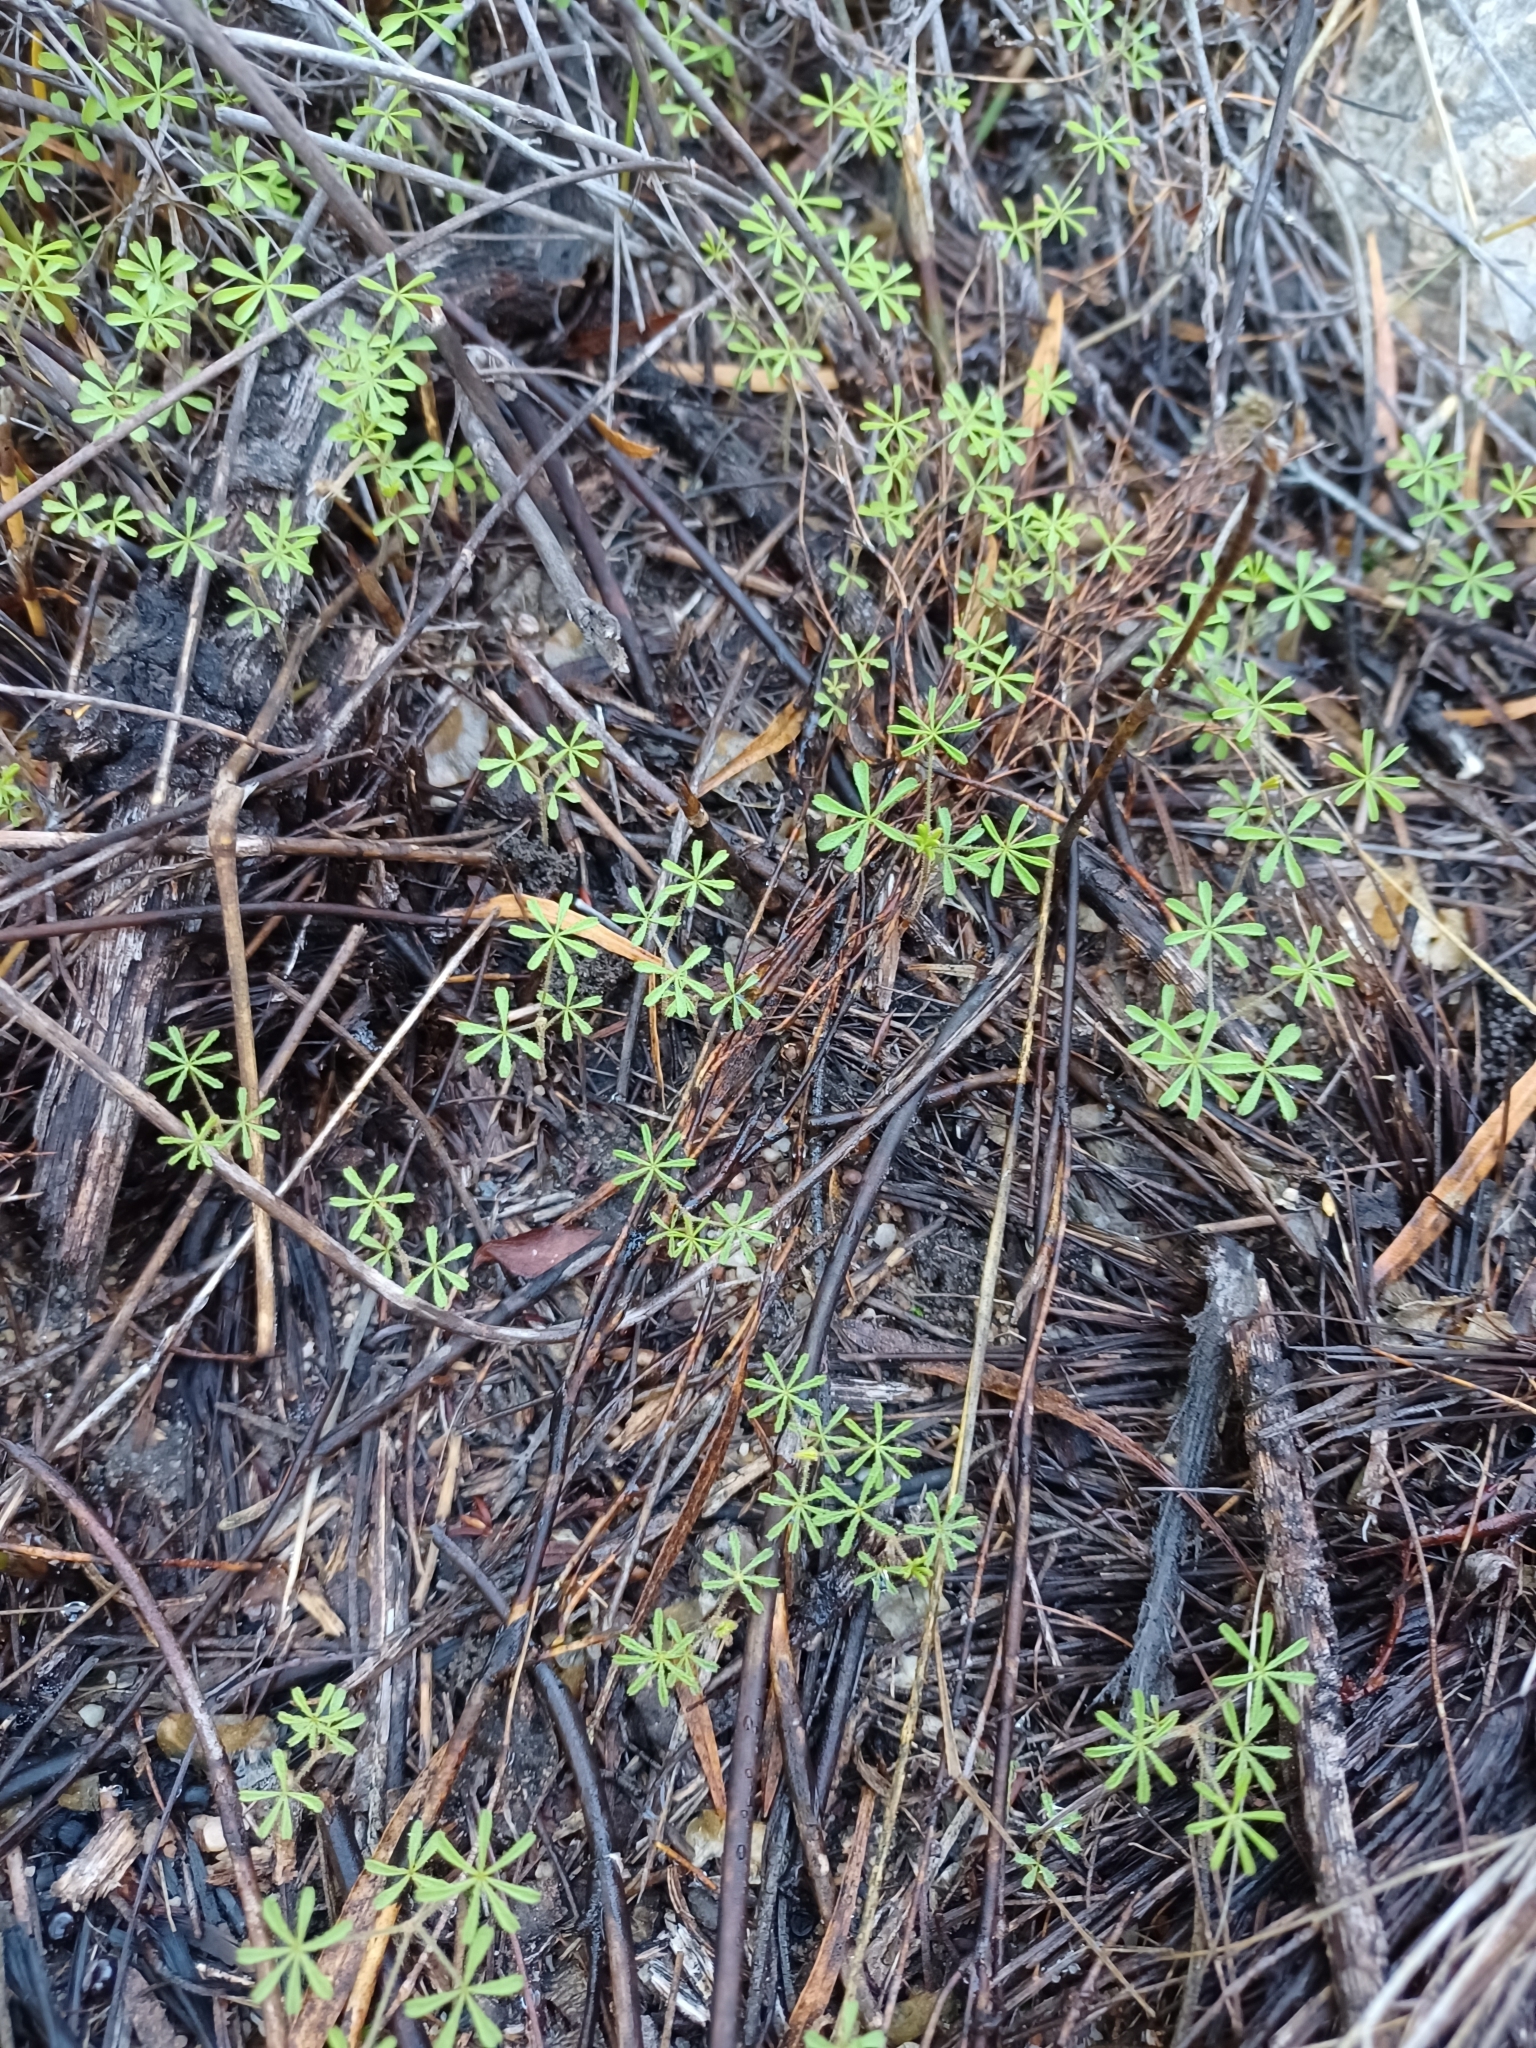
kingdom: Plantae
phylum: Tracheophyta
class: Magnoliopsida
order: Oxalidales
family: Oxalidaceae
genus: Oxalis
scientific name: Oxalis engleriana
